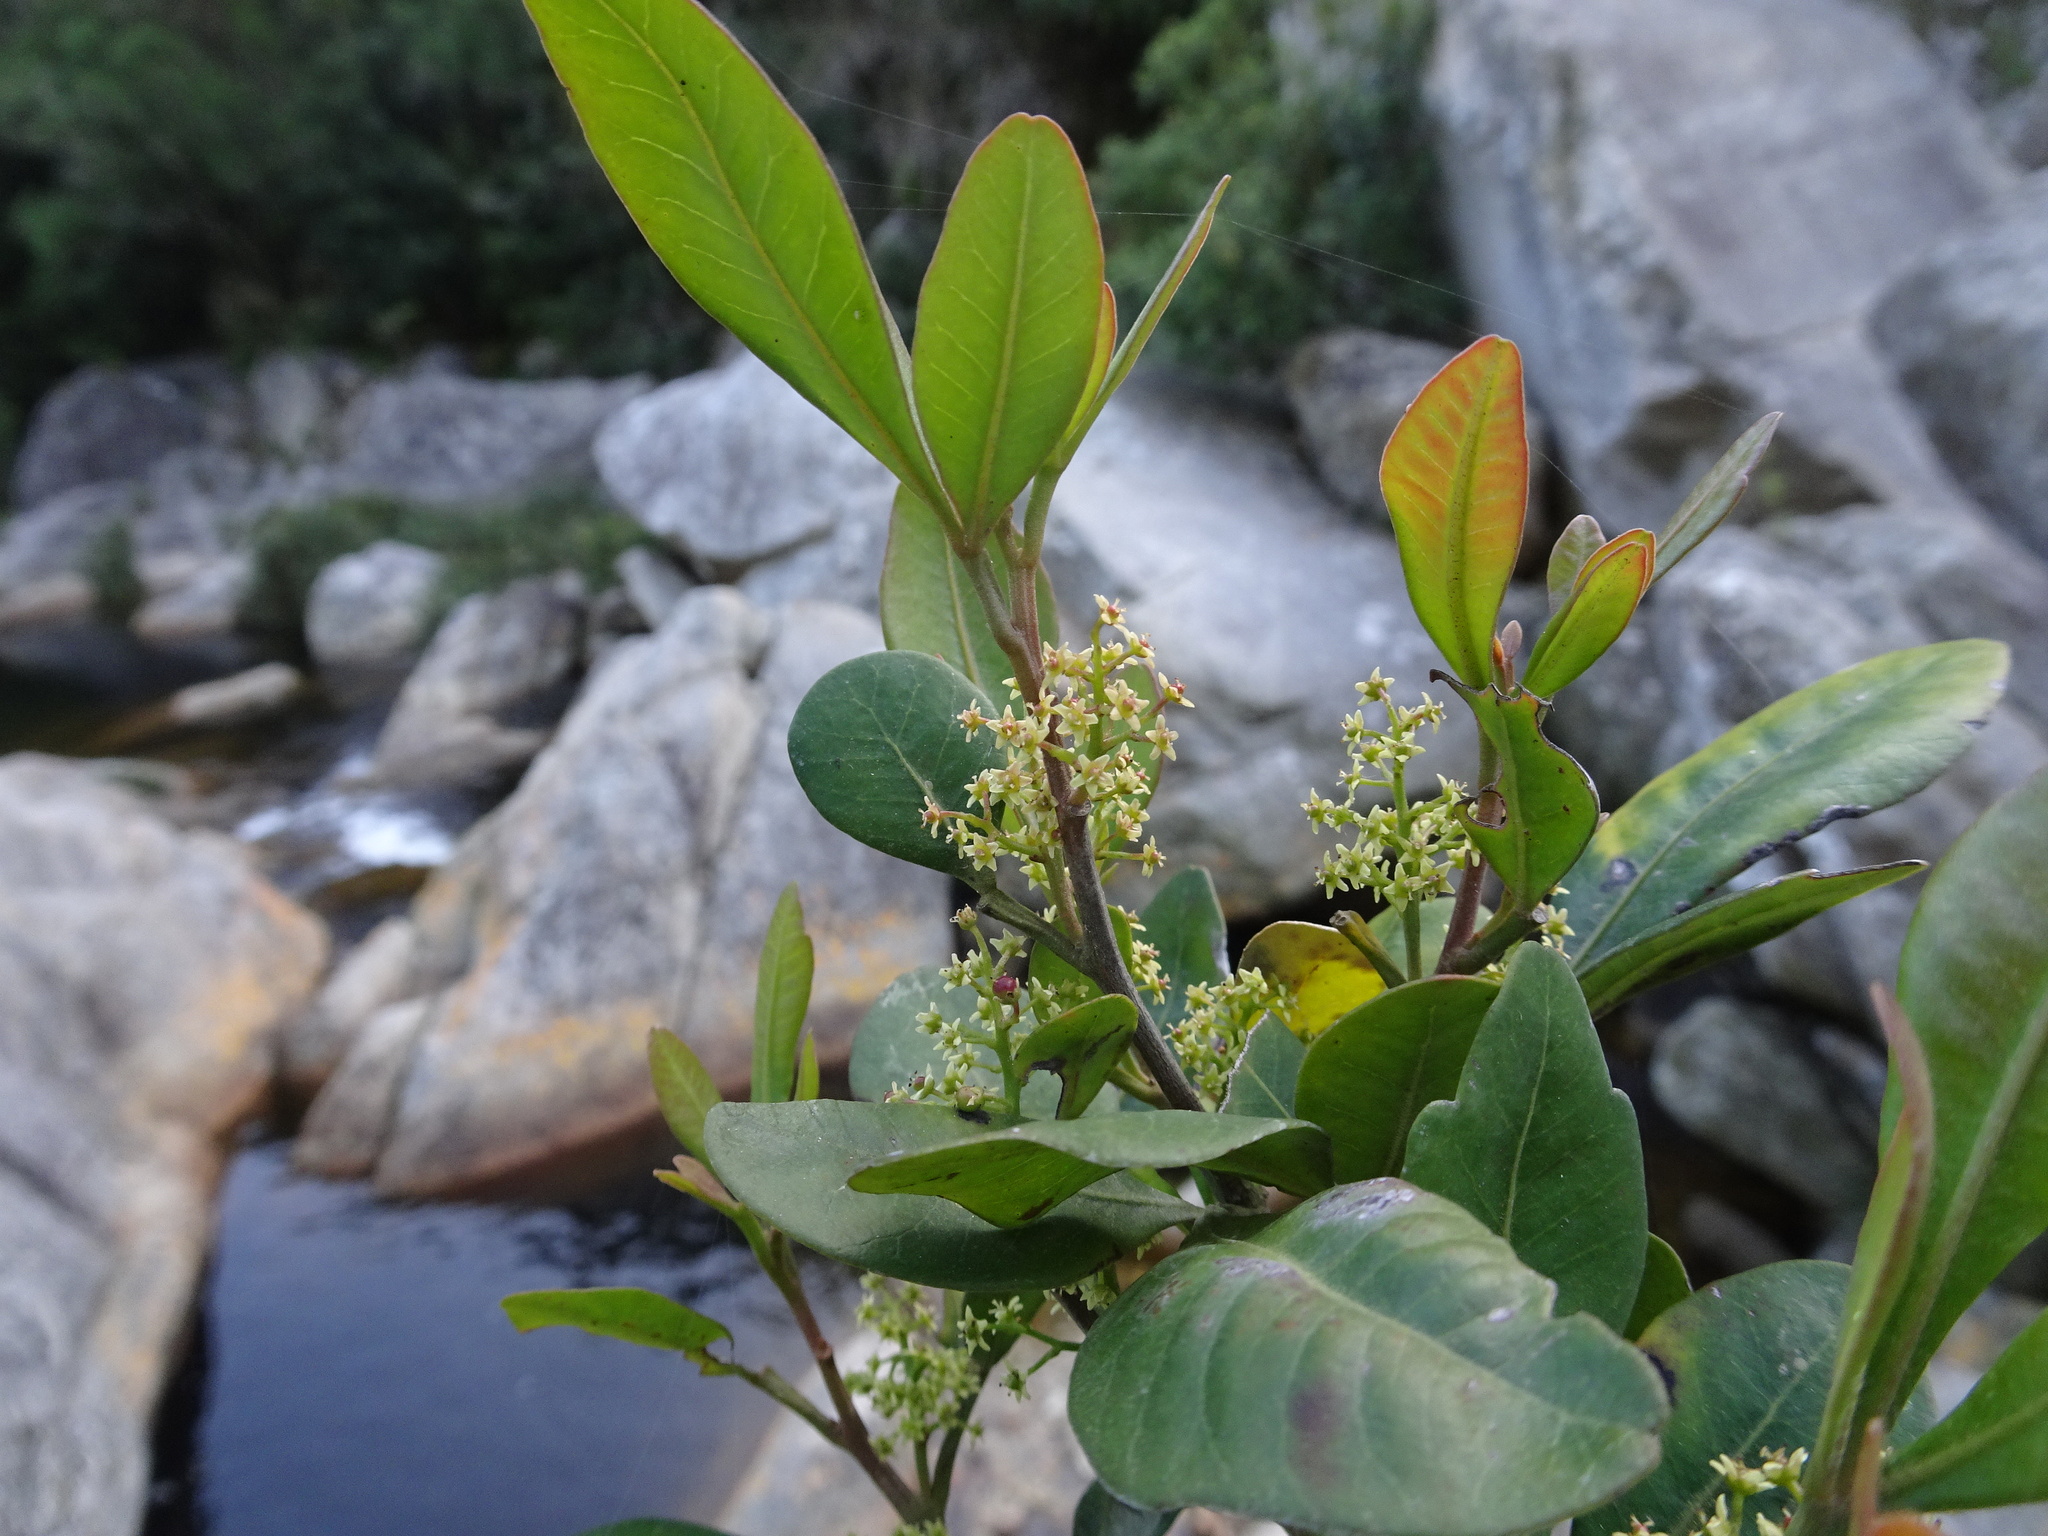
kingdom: Plantae
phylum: Tracheophyta
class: Magnoliopsida
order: Sapindales
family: Anacardiaceae
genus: Searsia
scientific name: Searsia lucida
